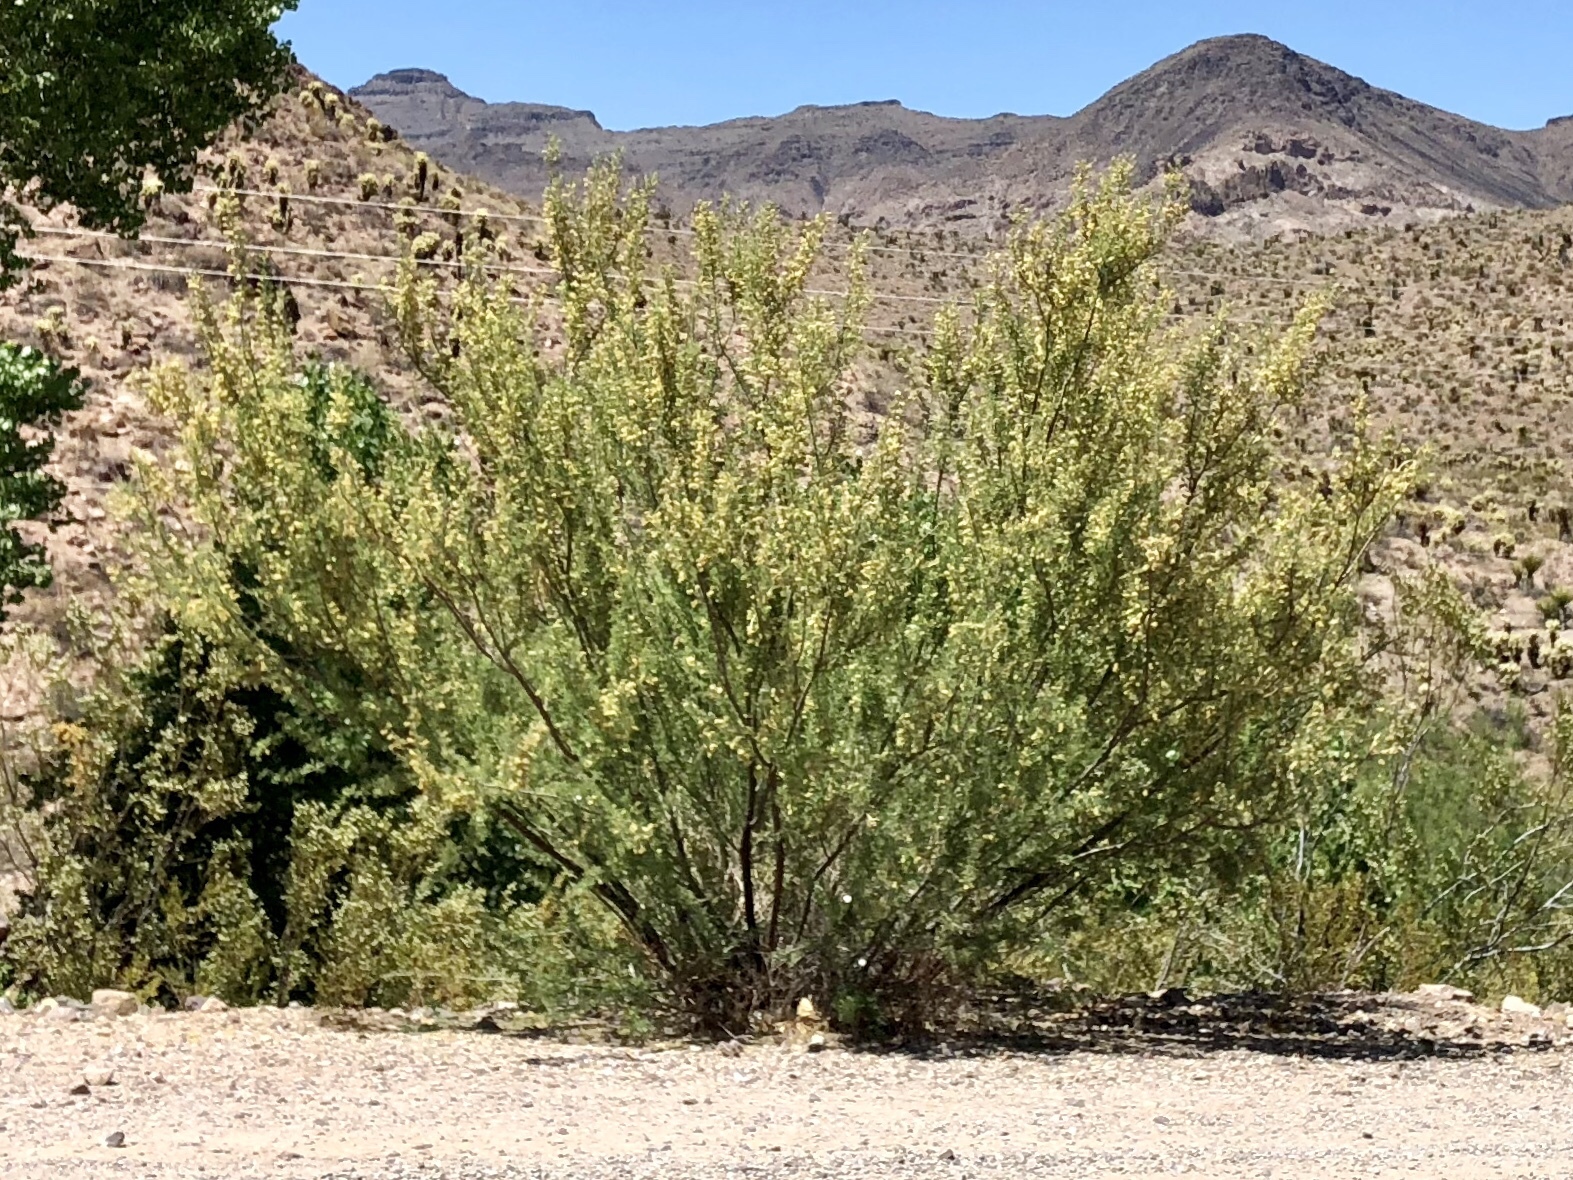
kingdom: Plantae
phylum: Tracheophyta
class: Magnoliopsida
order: Zygophyllales
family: Zygophyllaceae
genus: Larrea
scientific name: Larrea tridentata
